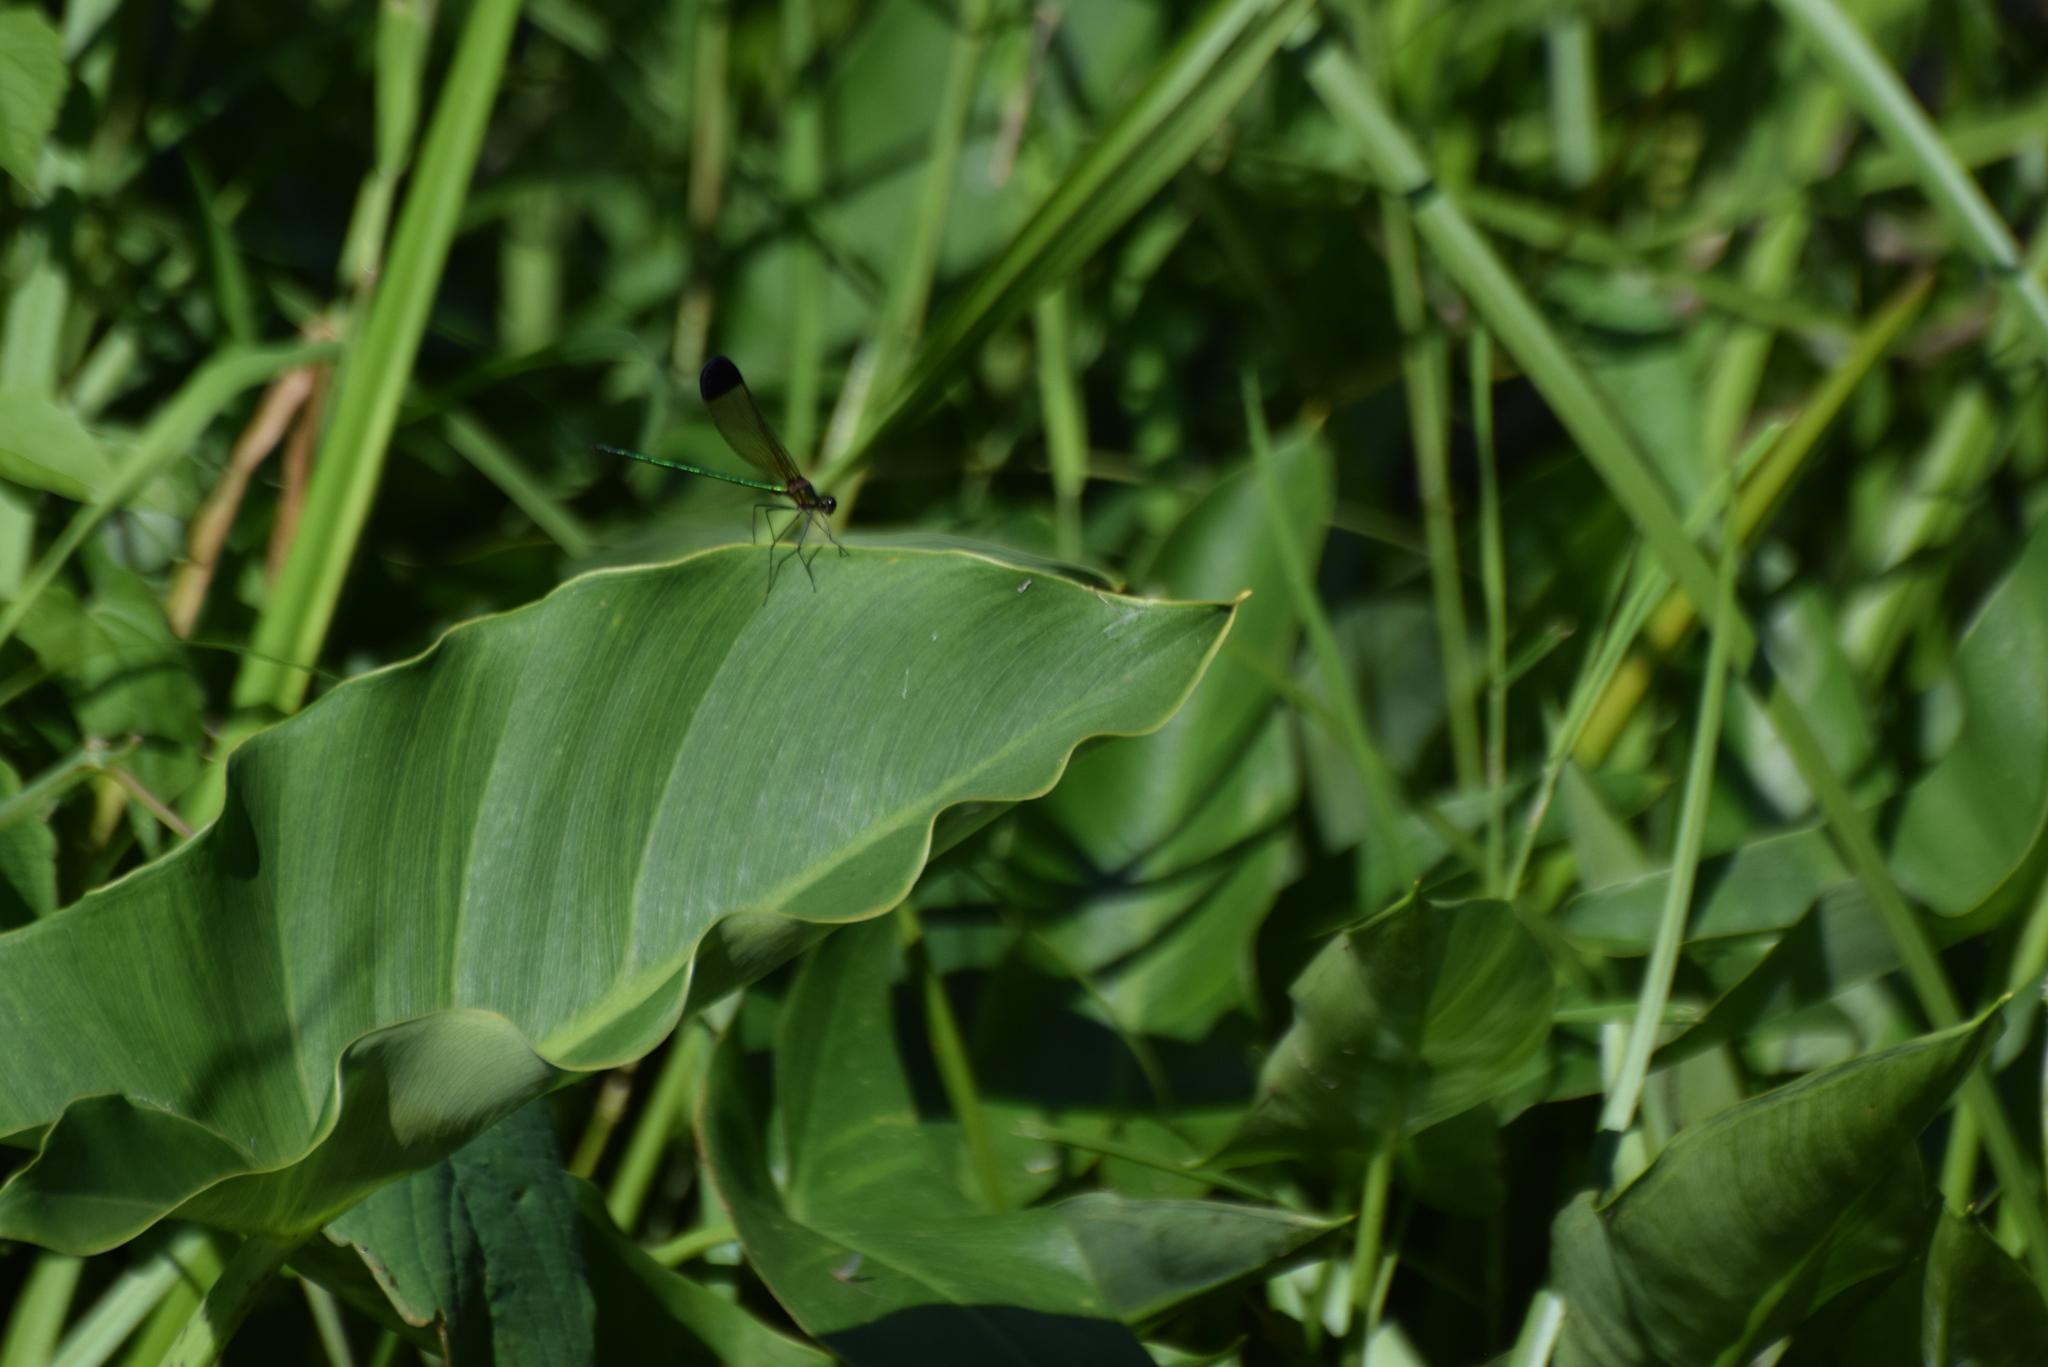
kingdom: Animalia
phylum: Arthropoda
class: Insecta
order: Odonata
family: Calopterygidae
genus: Calopteryx
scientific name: Calopteryx dimidiata
